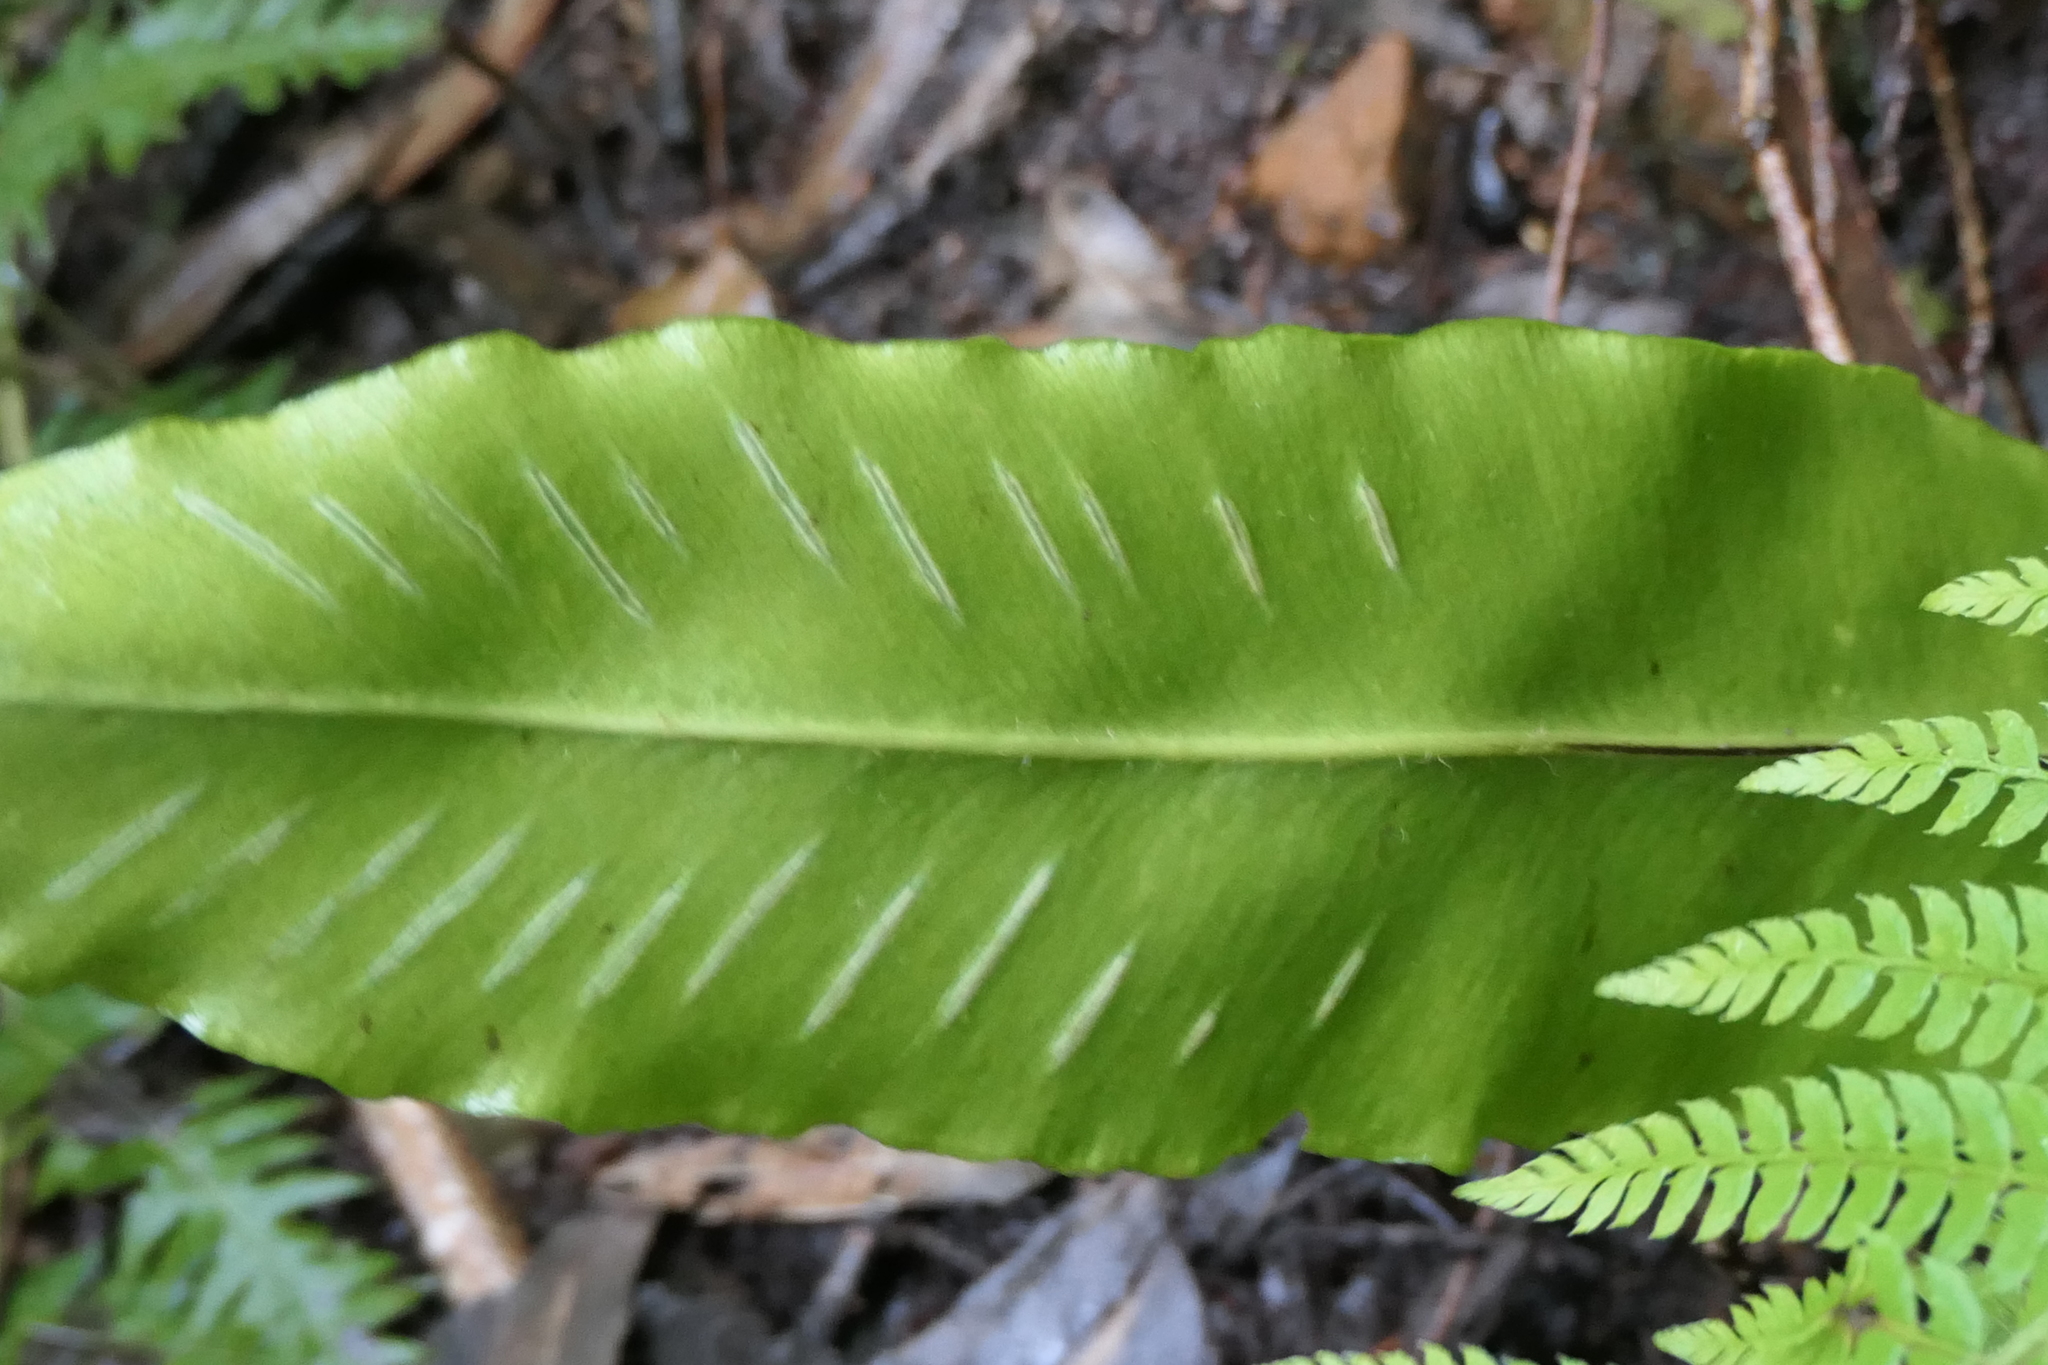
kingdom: Plantae
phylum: Tracheophyta
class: Polypodiopsida
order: Polypodiales
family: Aspleniaceae
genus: Asplenium
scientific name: Asplenium scolopendrium
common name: Hart's-tongue fern
